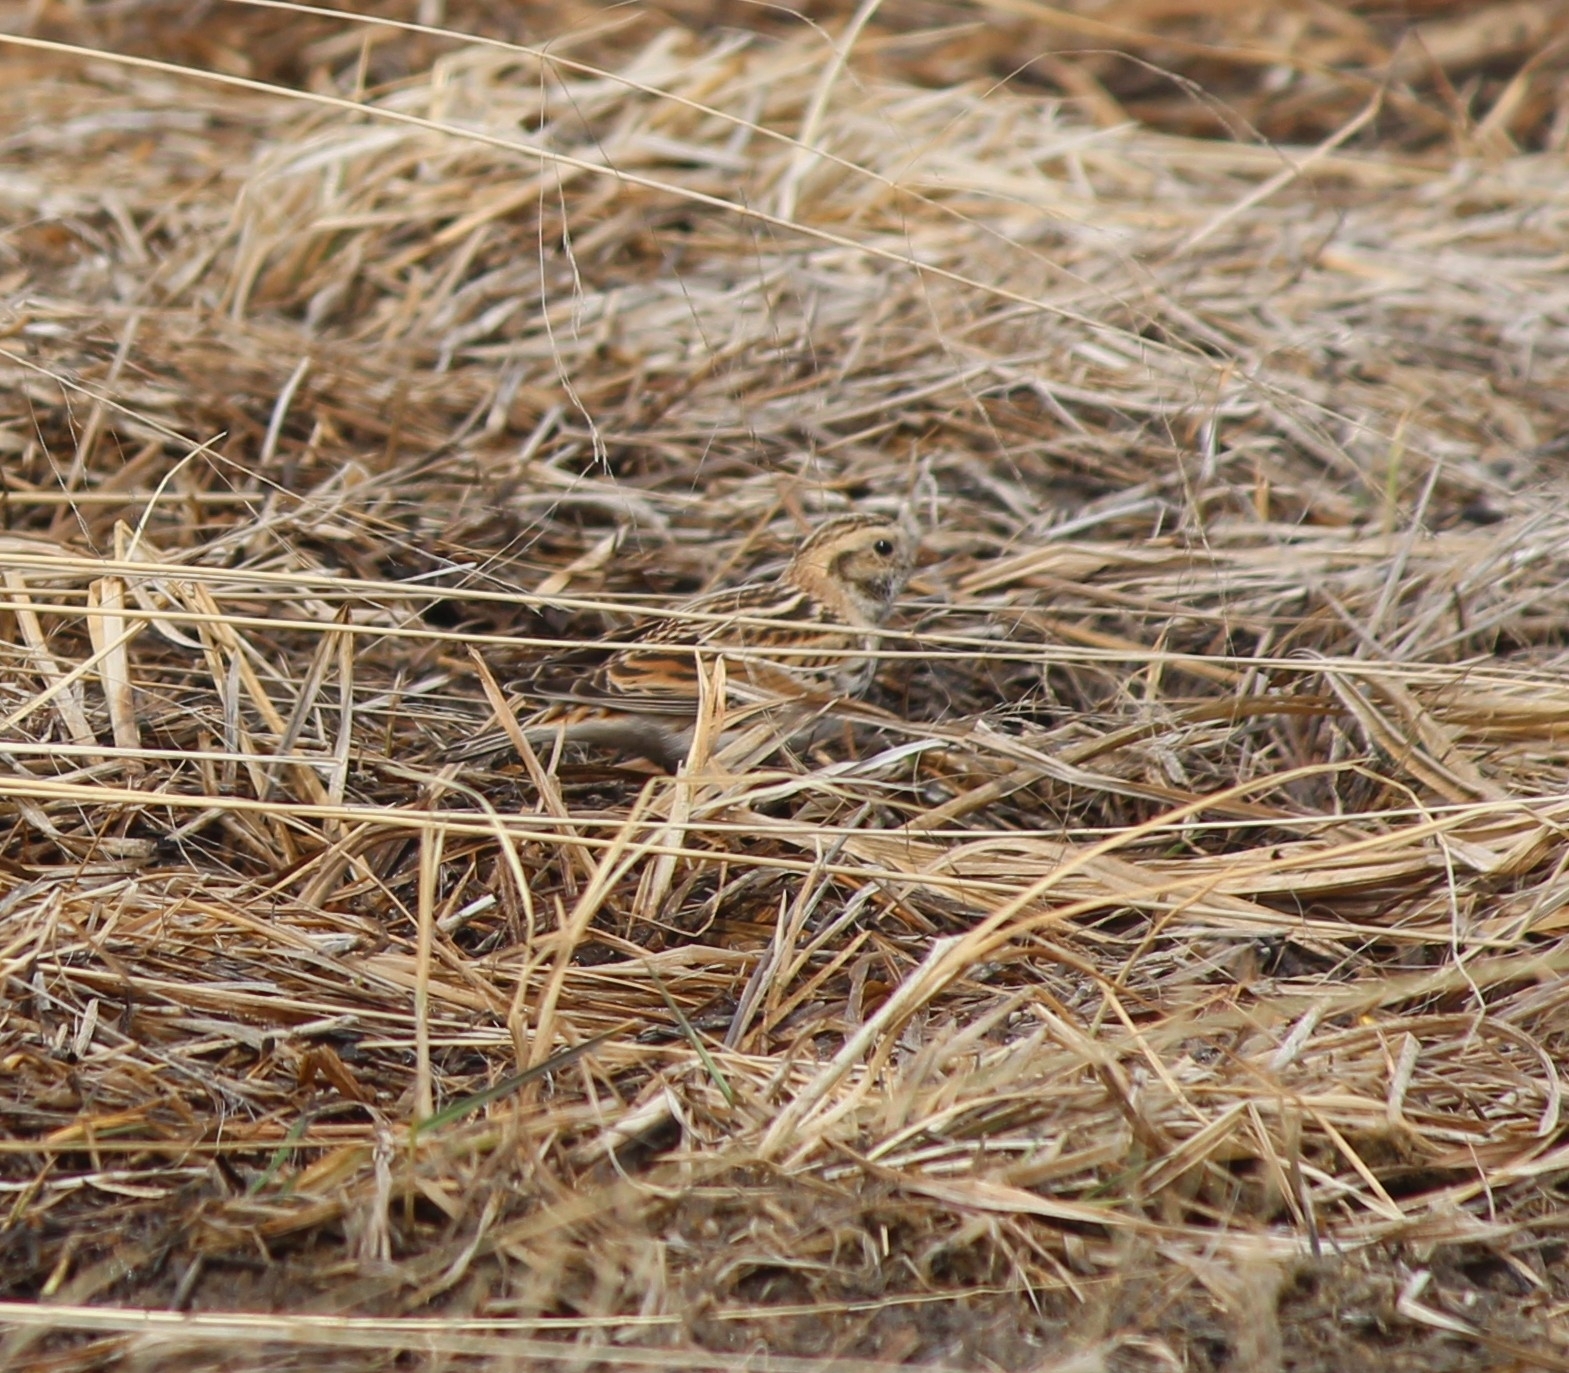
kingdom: Animalia
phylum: Chordata
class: Aves
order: Passeriformes
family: Calcariidae
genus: Calcarius
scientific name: Calcarius lapponicus
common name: Lapland longspur
